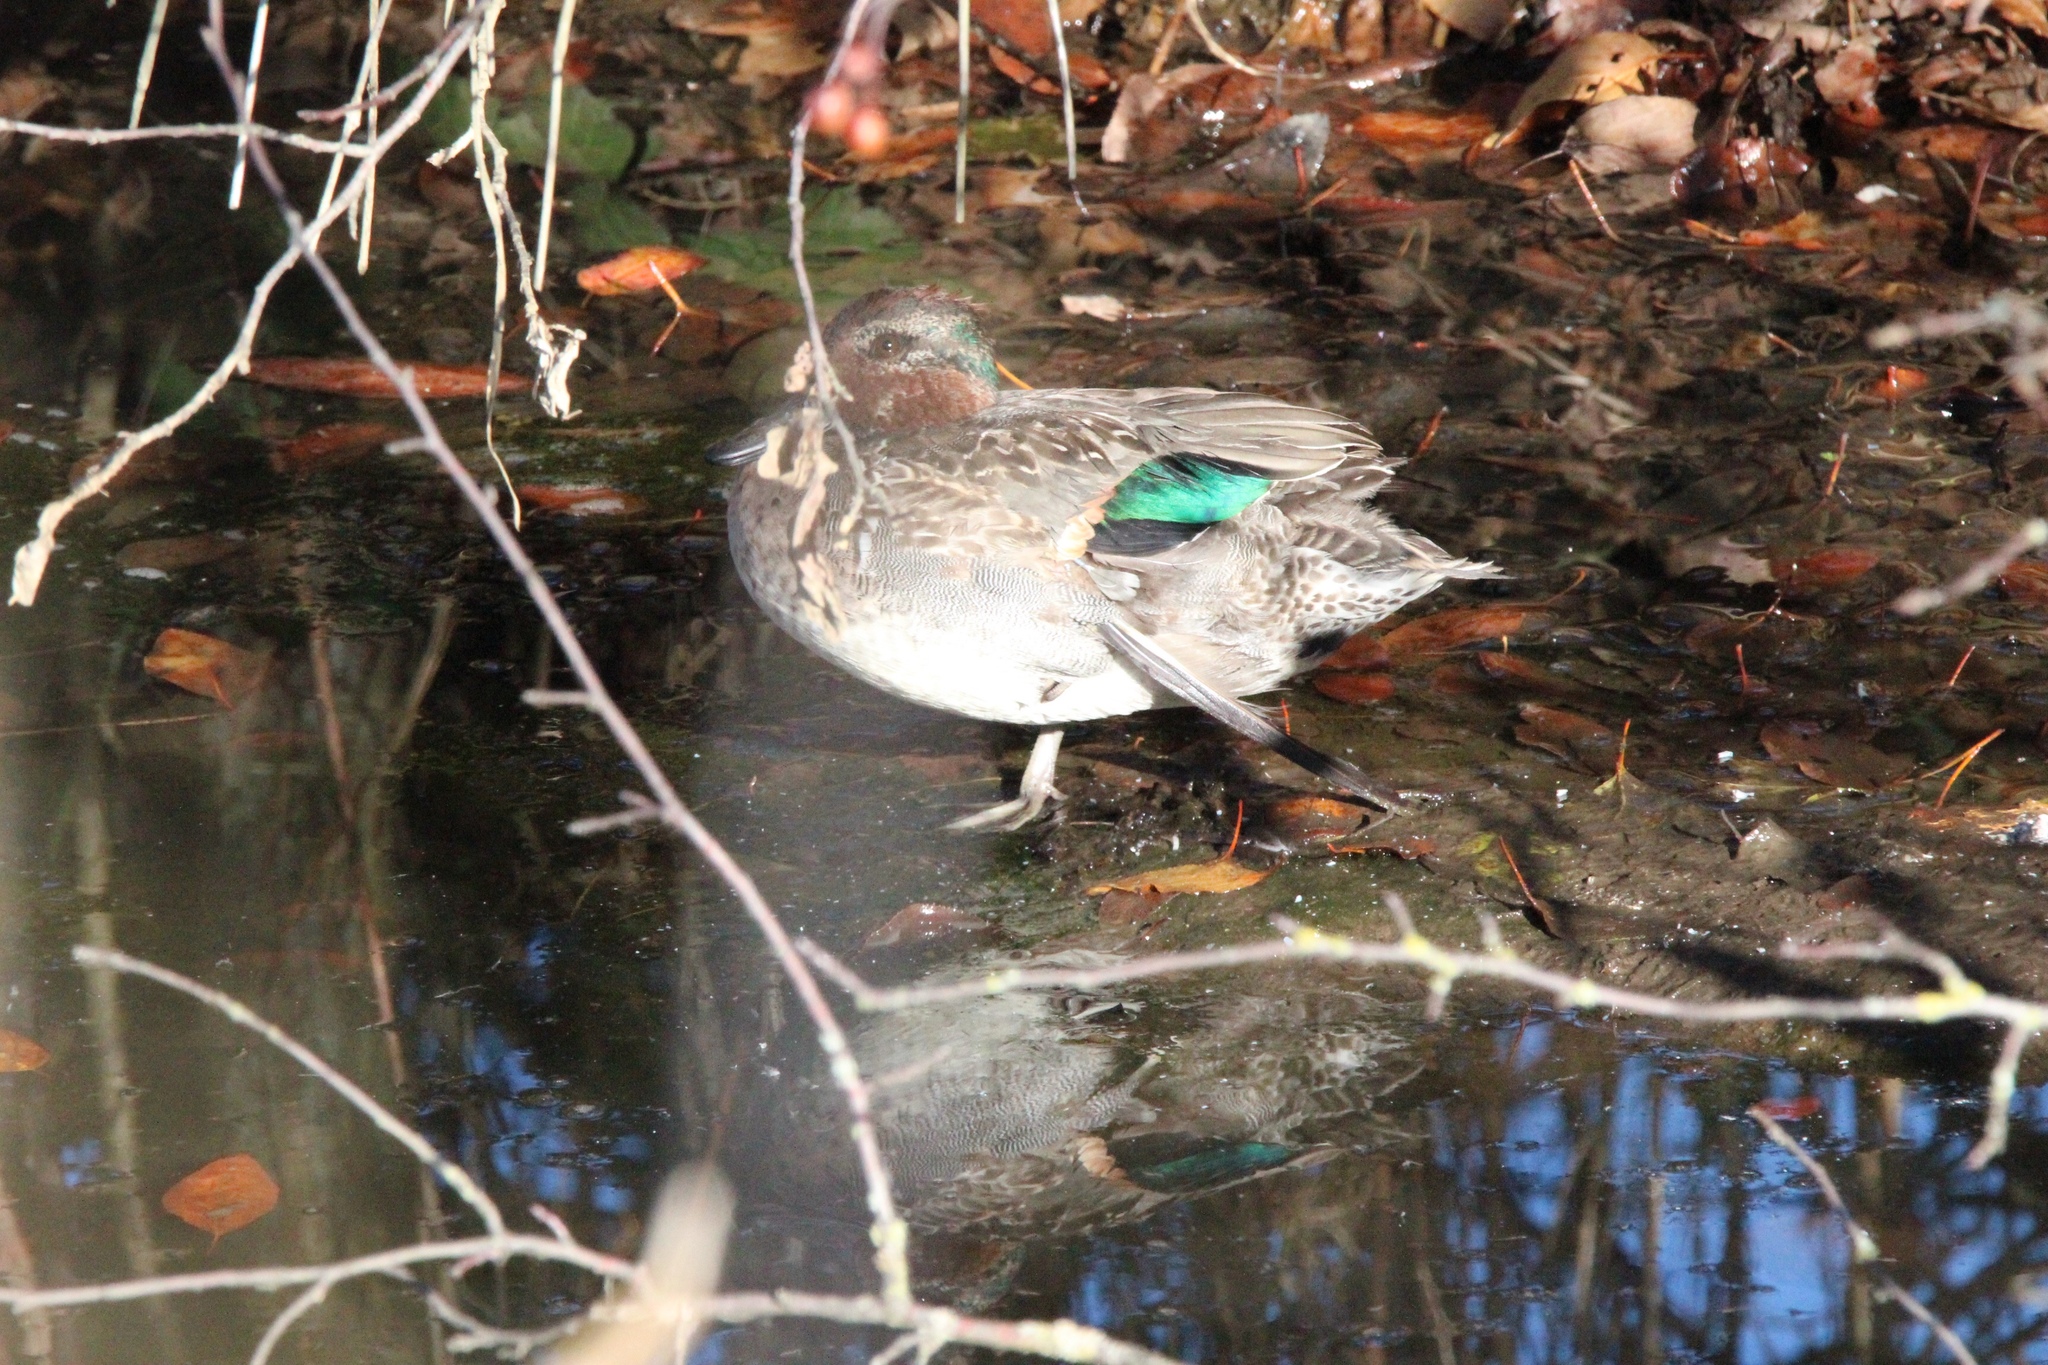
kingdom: Animalia
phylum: Chordata
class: Aves
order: Anseriformes
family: Anatidae
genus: Anas
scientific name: Anas crecca
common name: Eurasian teal
